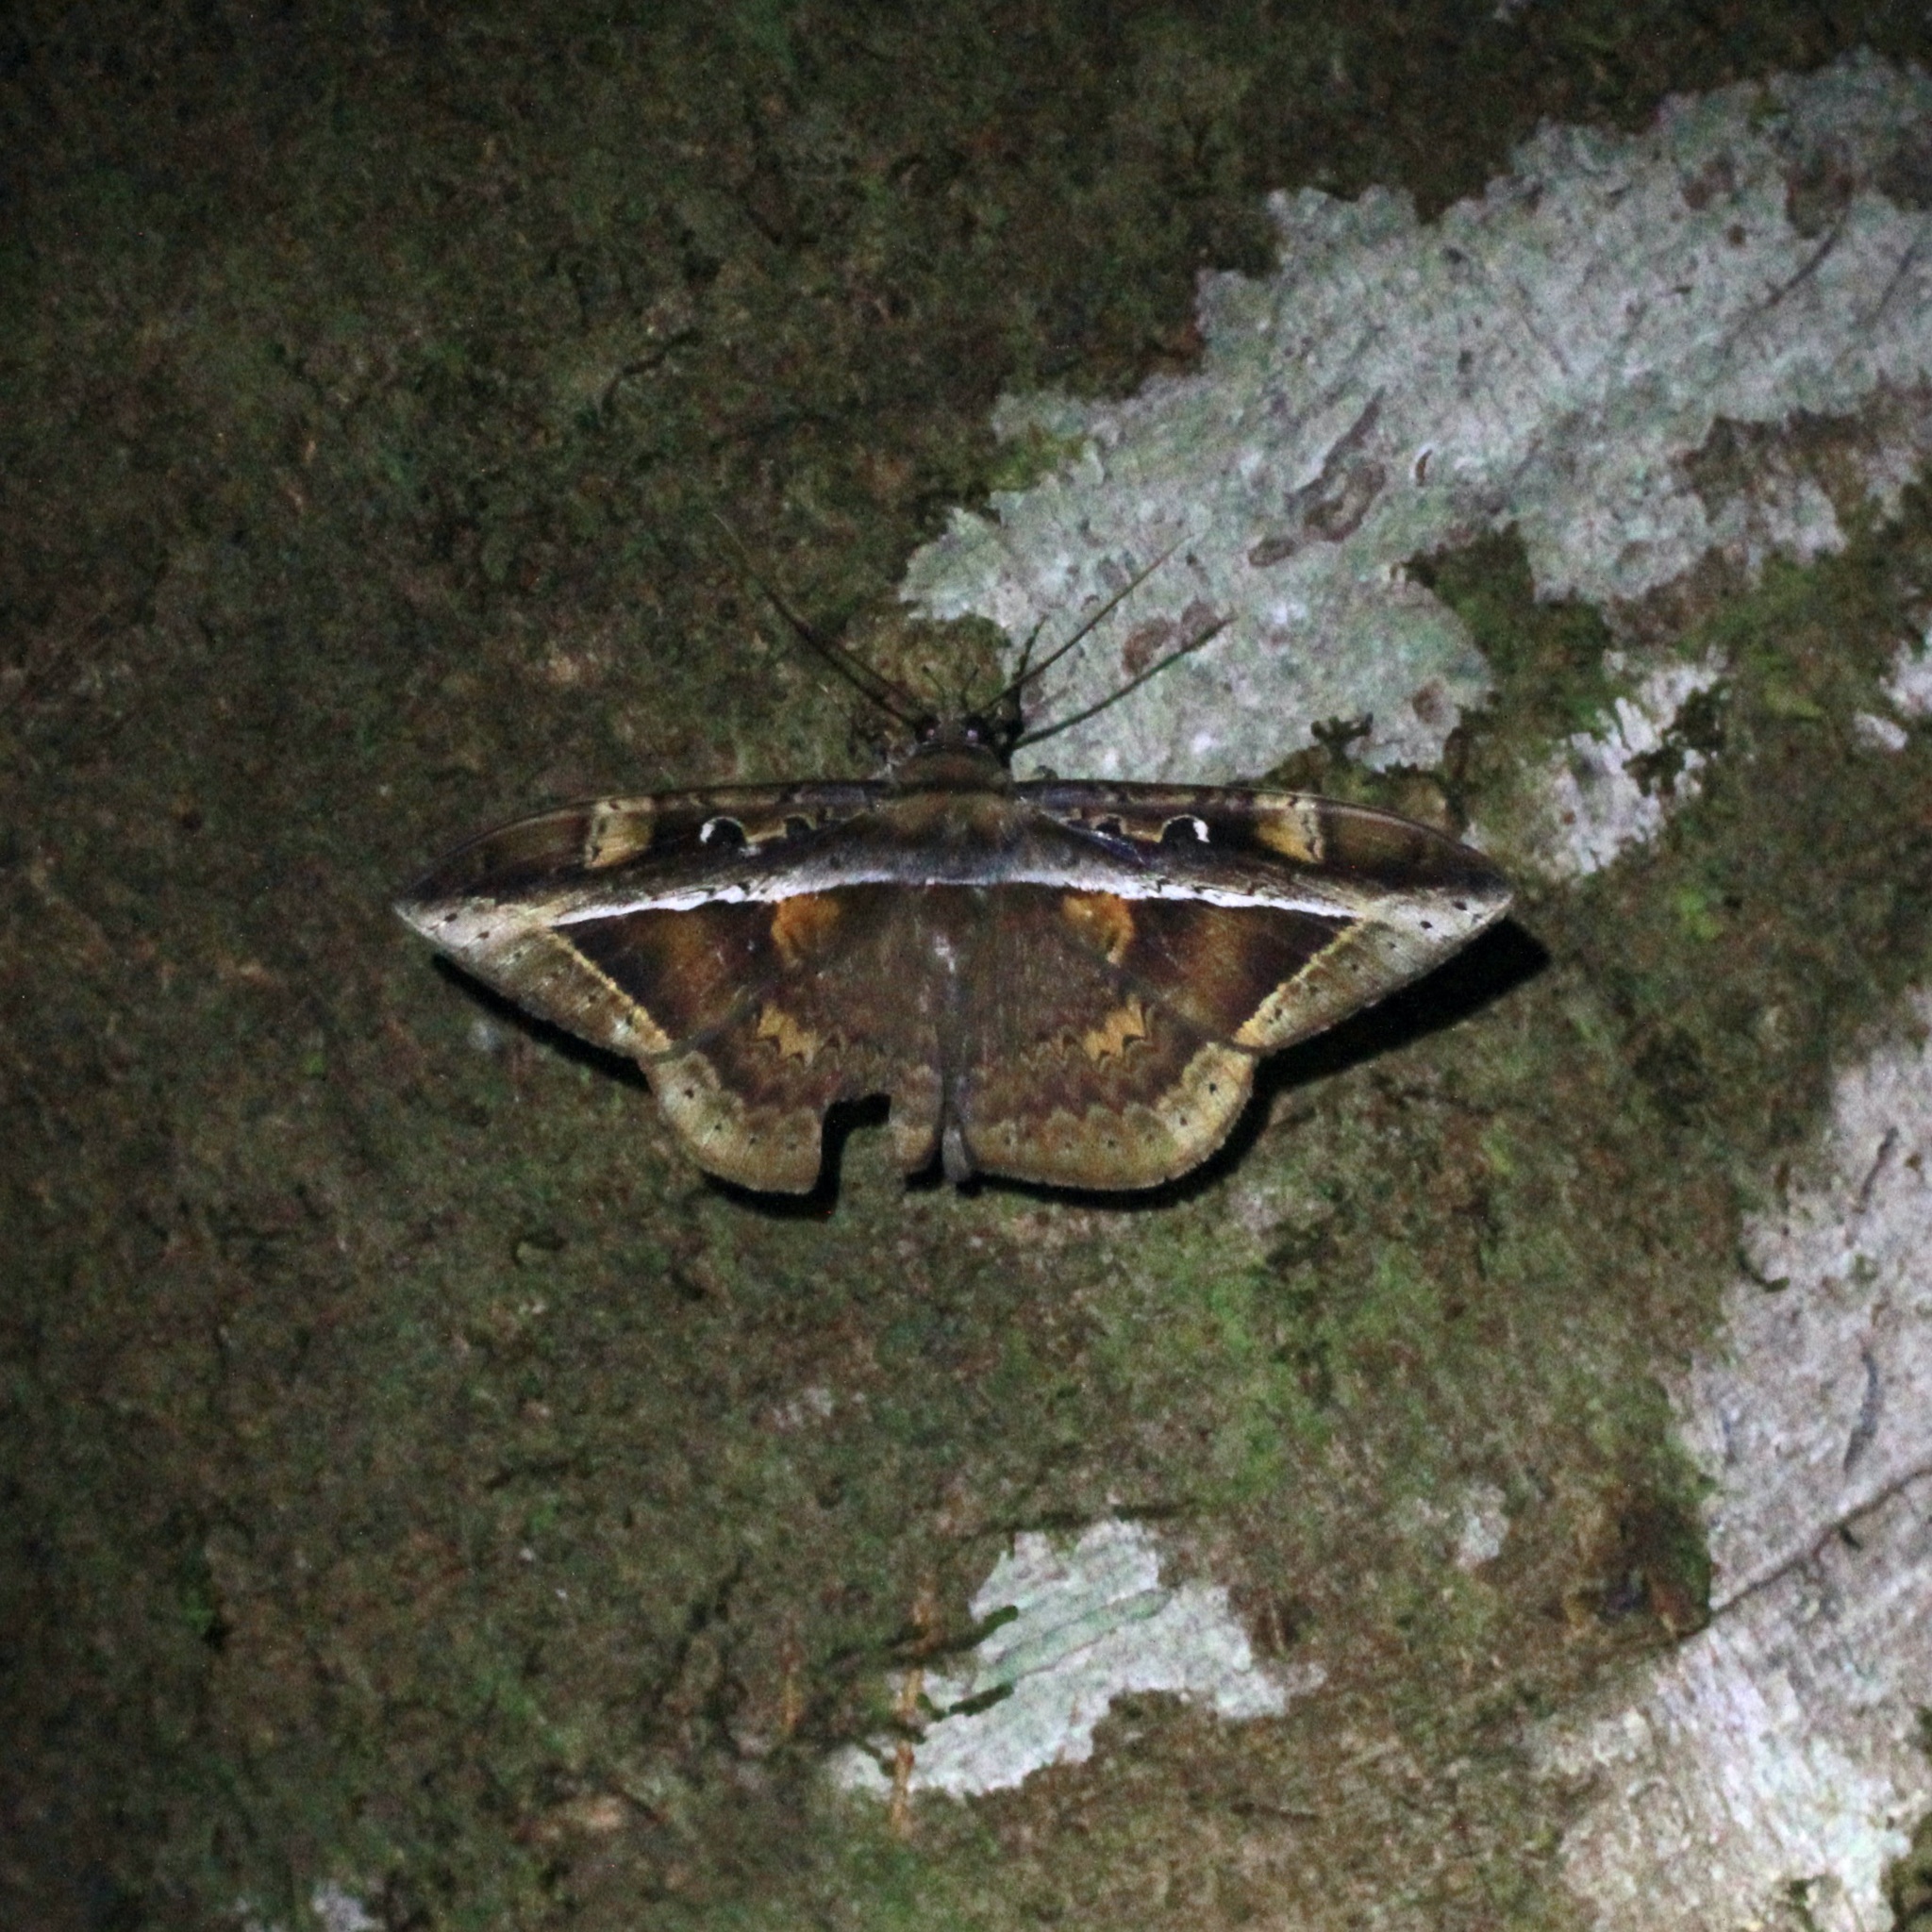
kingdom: Animalia
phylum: Arthropoda
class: Insecta
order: Lepidoptera
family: Erebidae
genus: Hemeroblemma
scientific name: Hemeroblemma opigena
